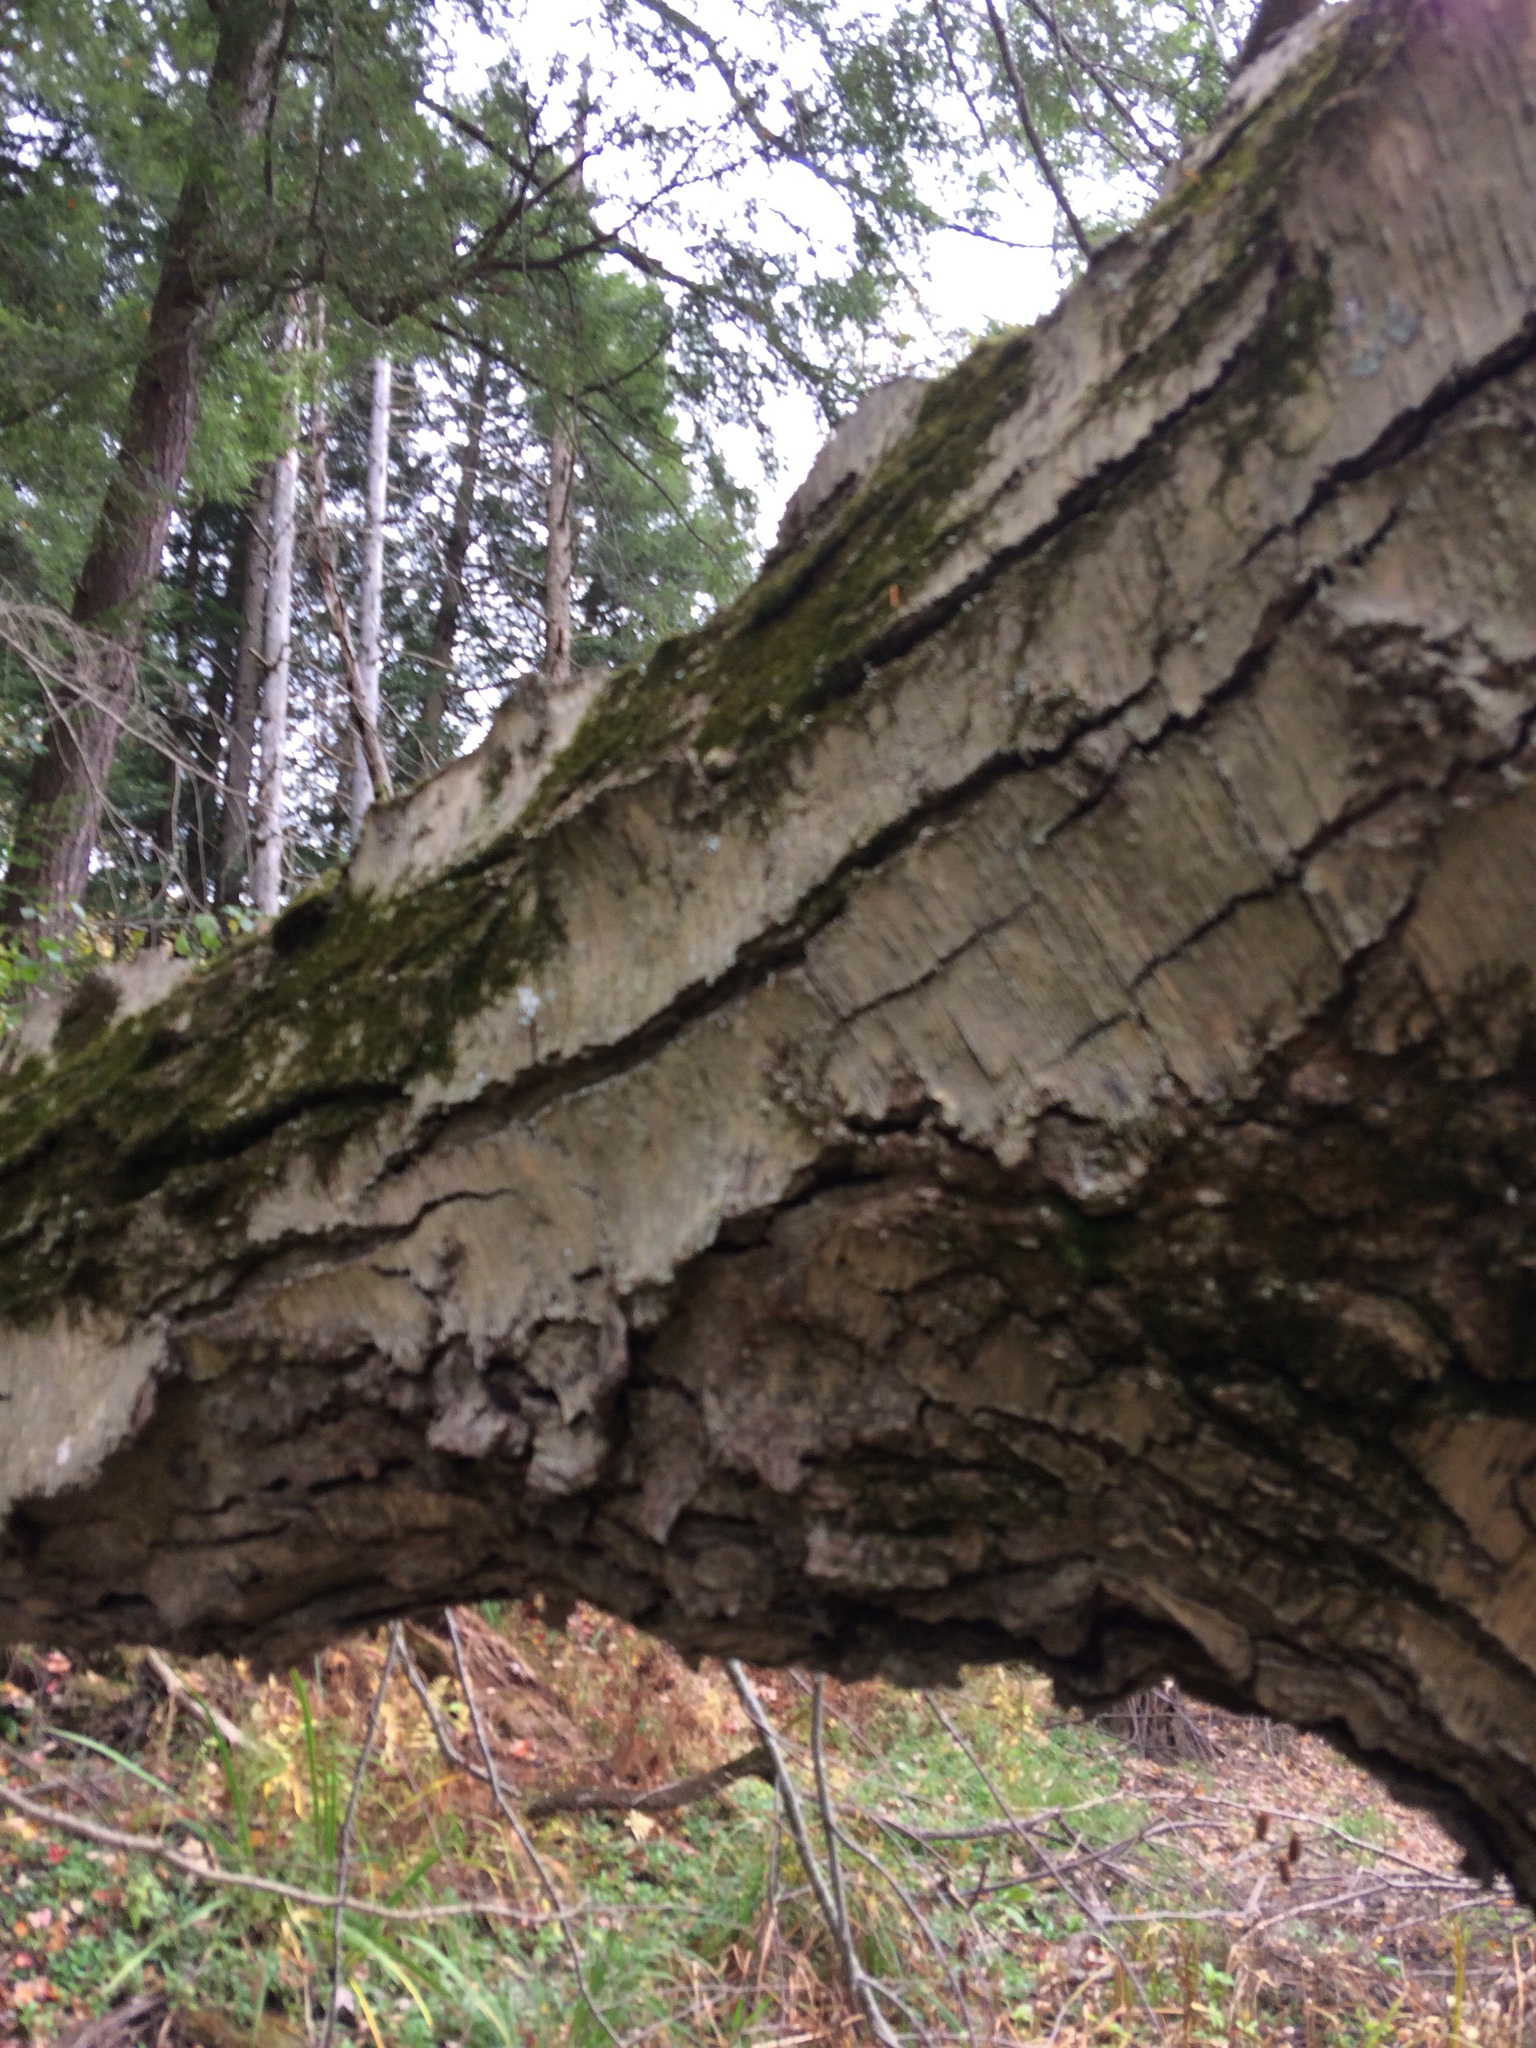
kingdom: Plantae
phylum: Tracheophyta
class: Magnoliopsida
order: Fagales
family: Betulaceae
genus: Betula
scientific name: Betula lenta
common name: Black birch
